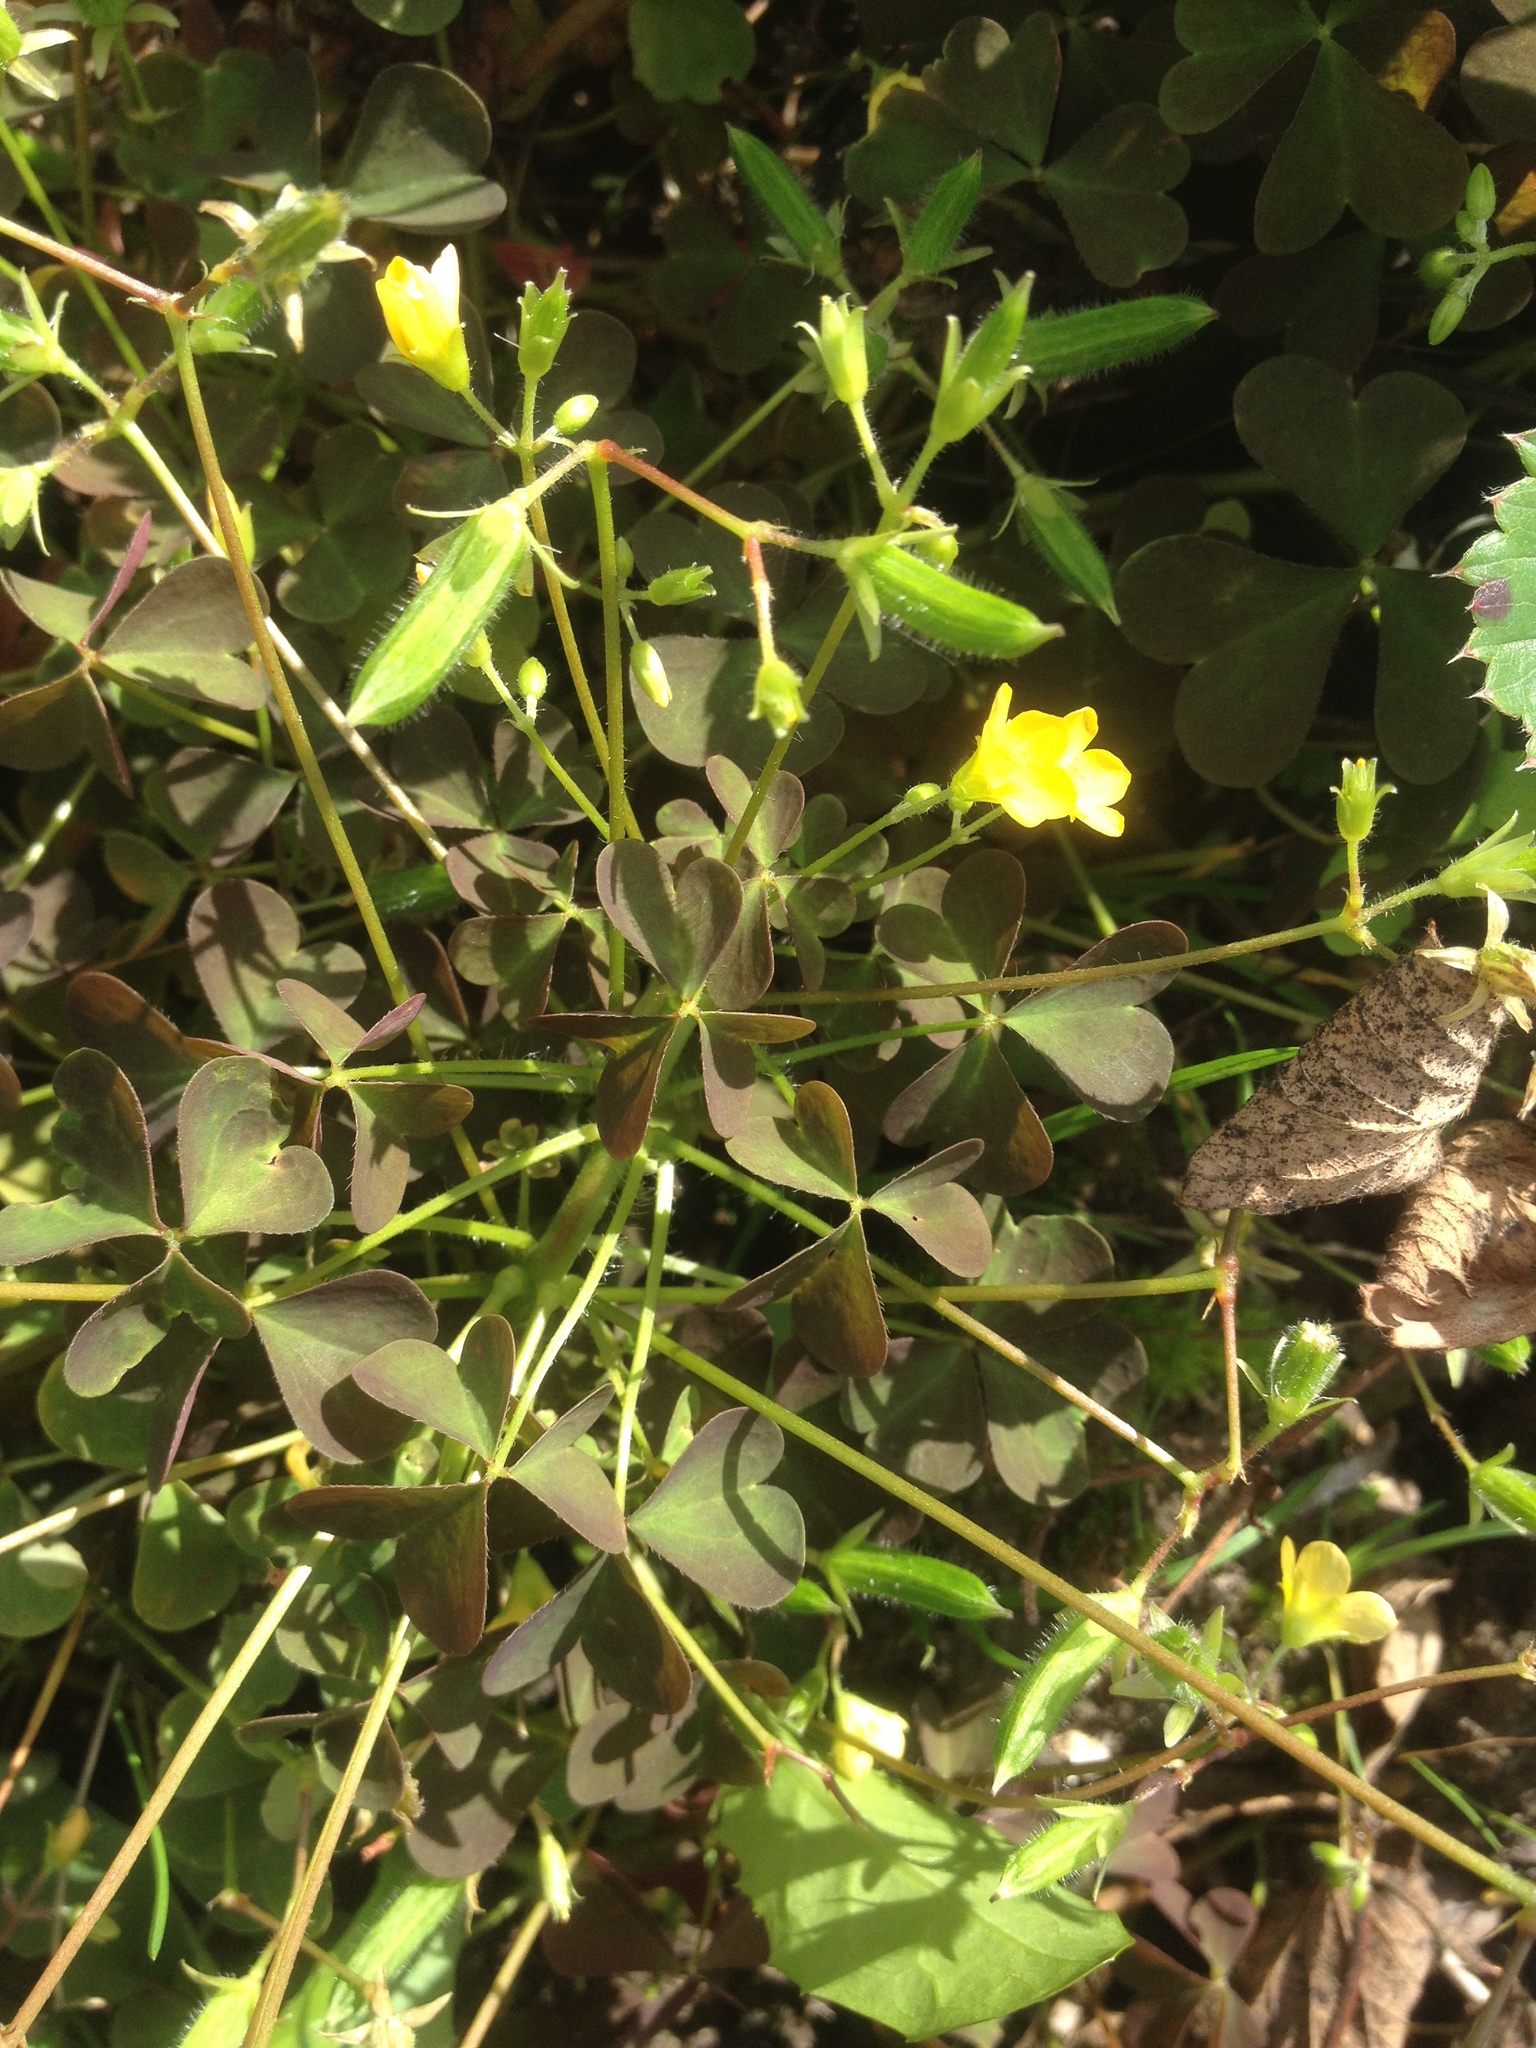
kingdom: Plantae
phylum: Tracheophyta
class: Magnoliopsida
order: Oxalidales
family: Oxalidaceae
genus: Oxalis
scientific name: Oxalis stricta
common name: Upright yellow-sorrel
